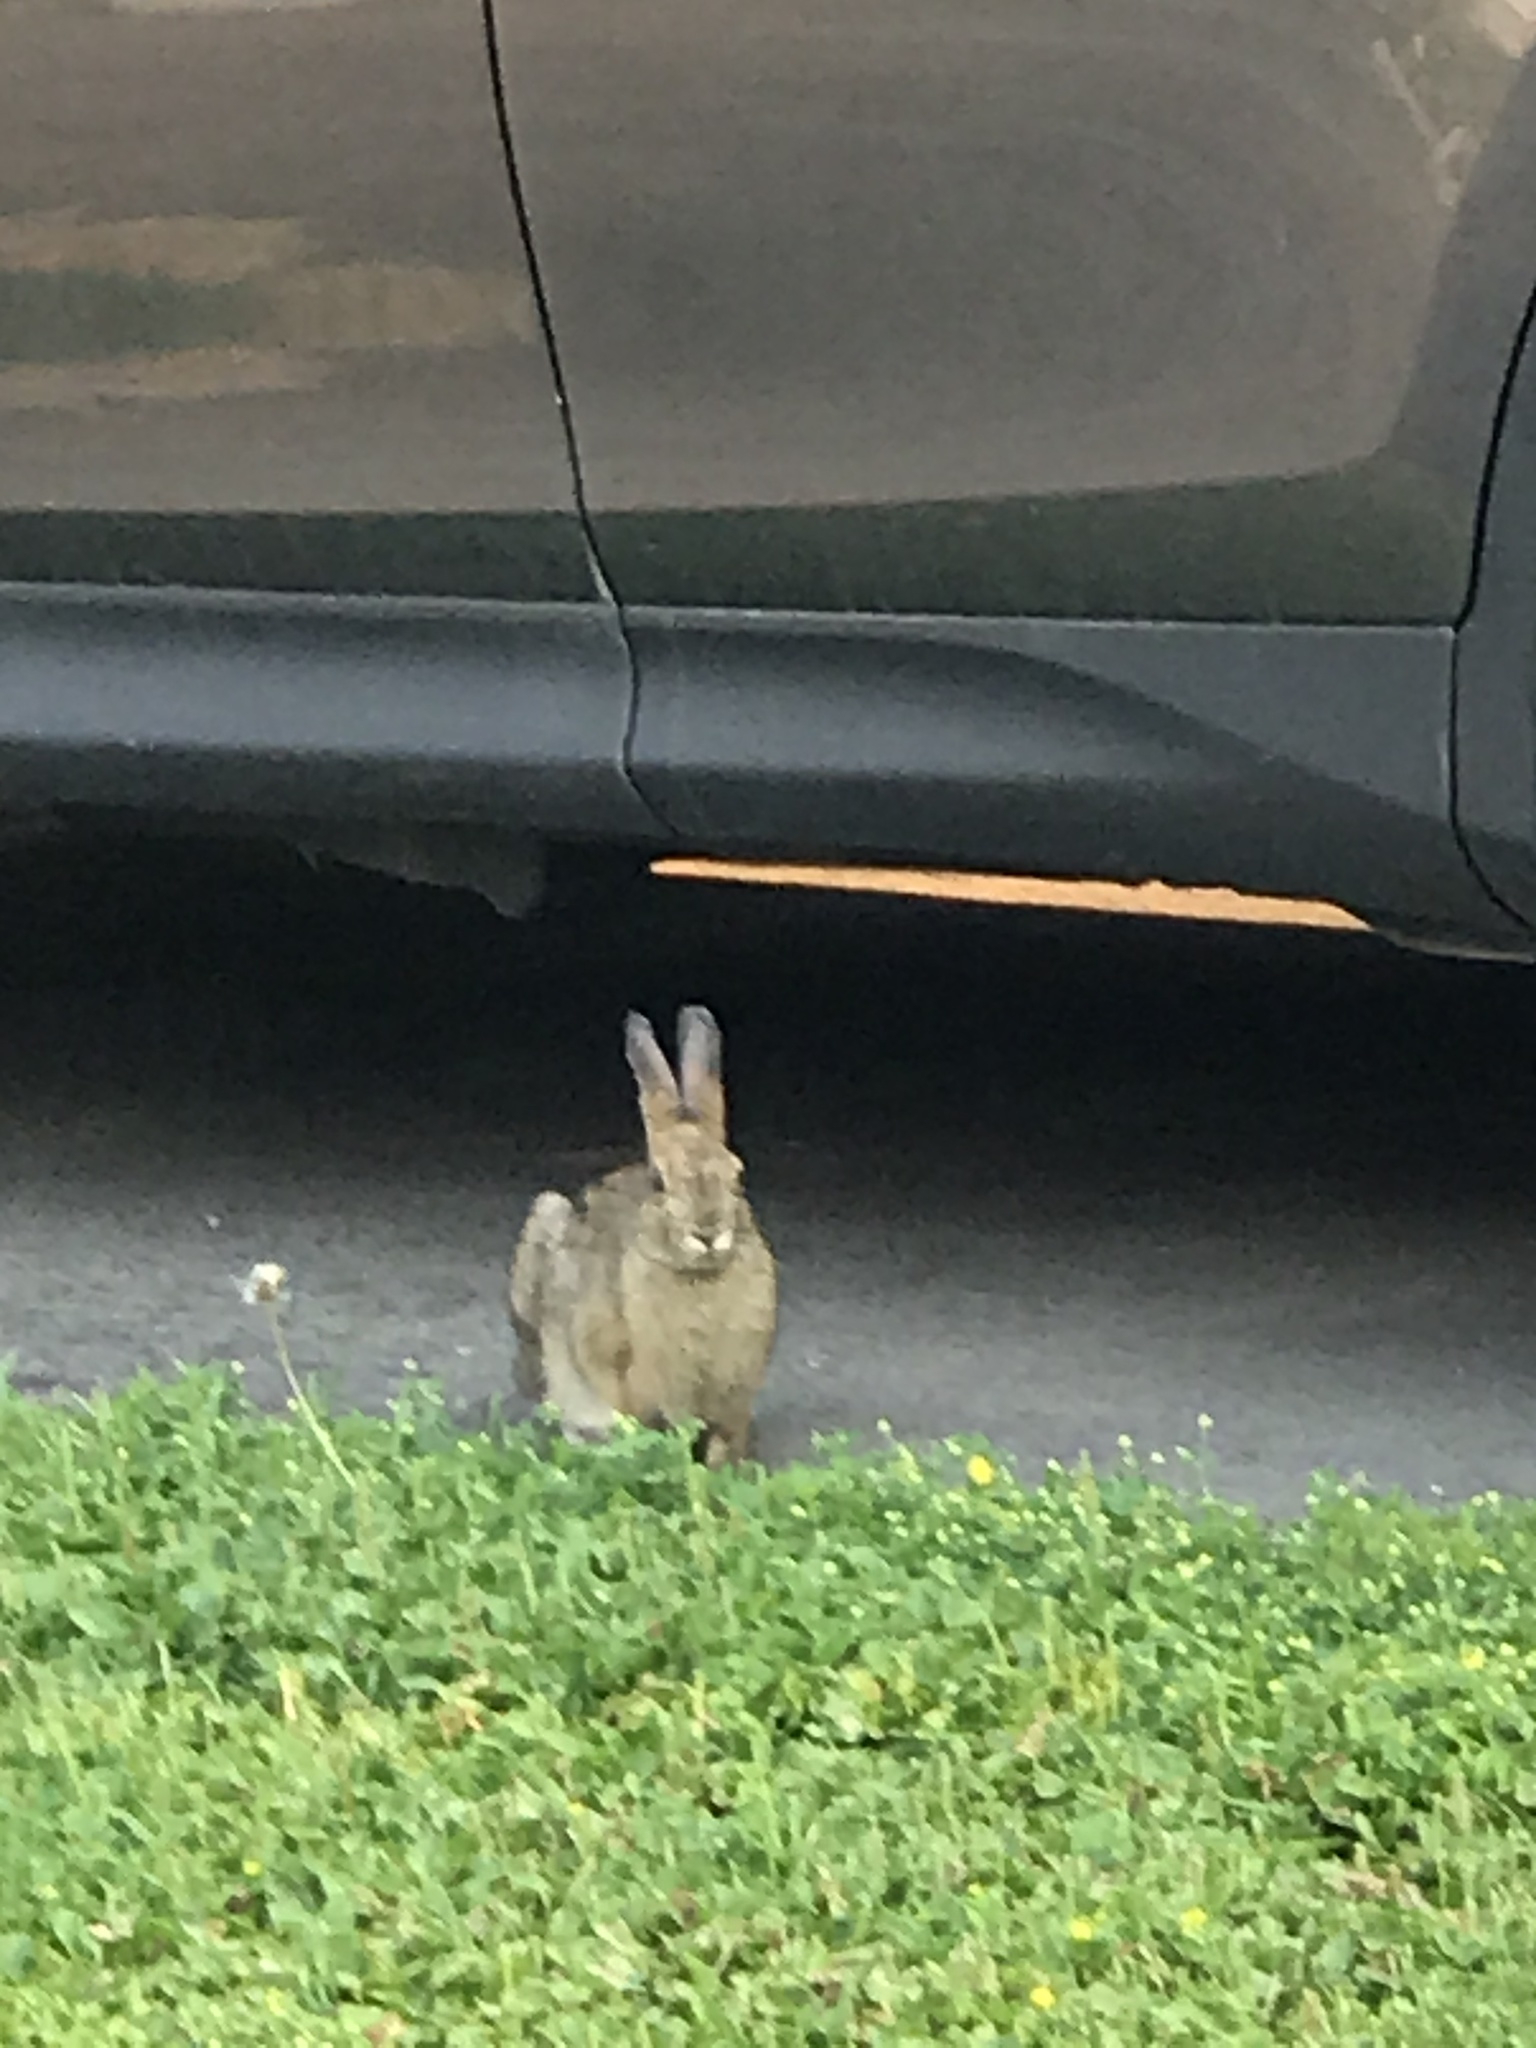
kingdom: Animalia
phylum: Chordata
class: Mammalia
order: Lagomorpha
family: Leporidae
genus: Lepus
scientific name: Lepus americanus
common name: Snowshoe hare
